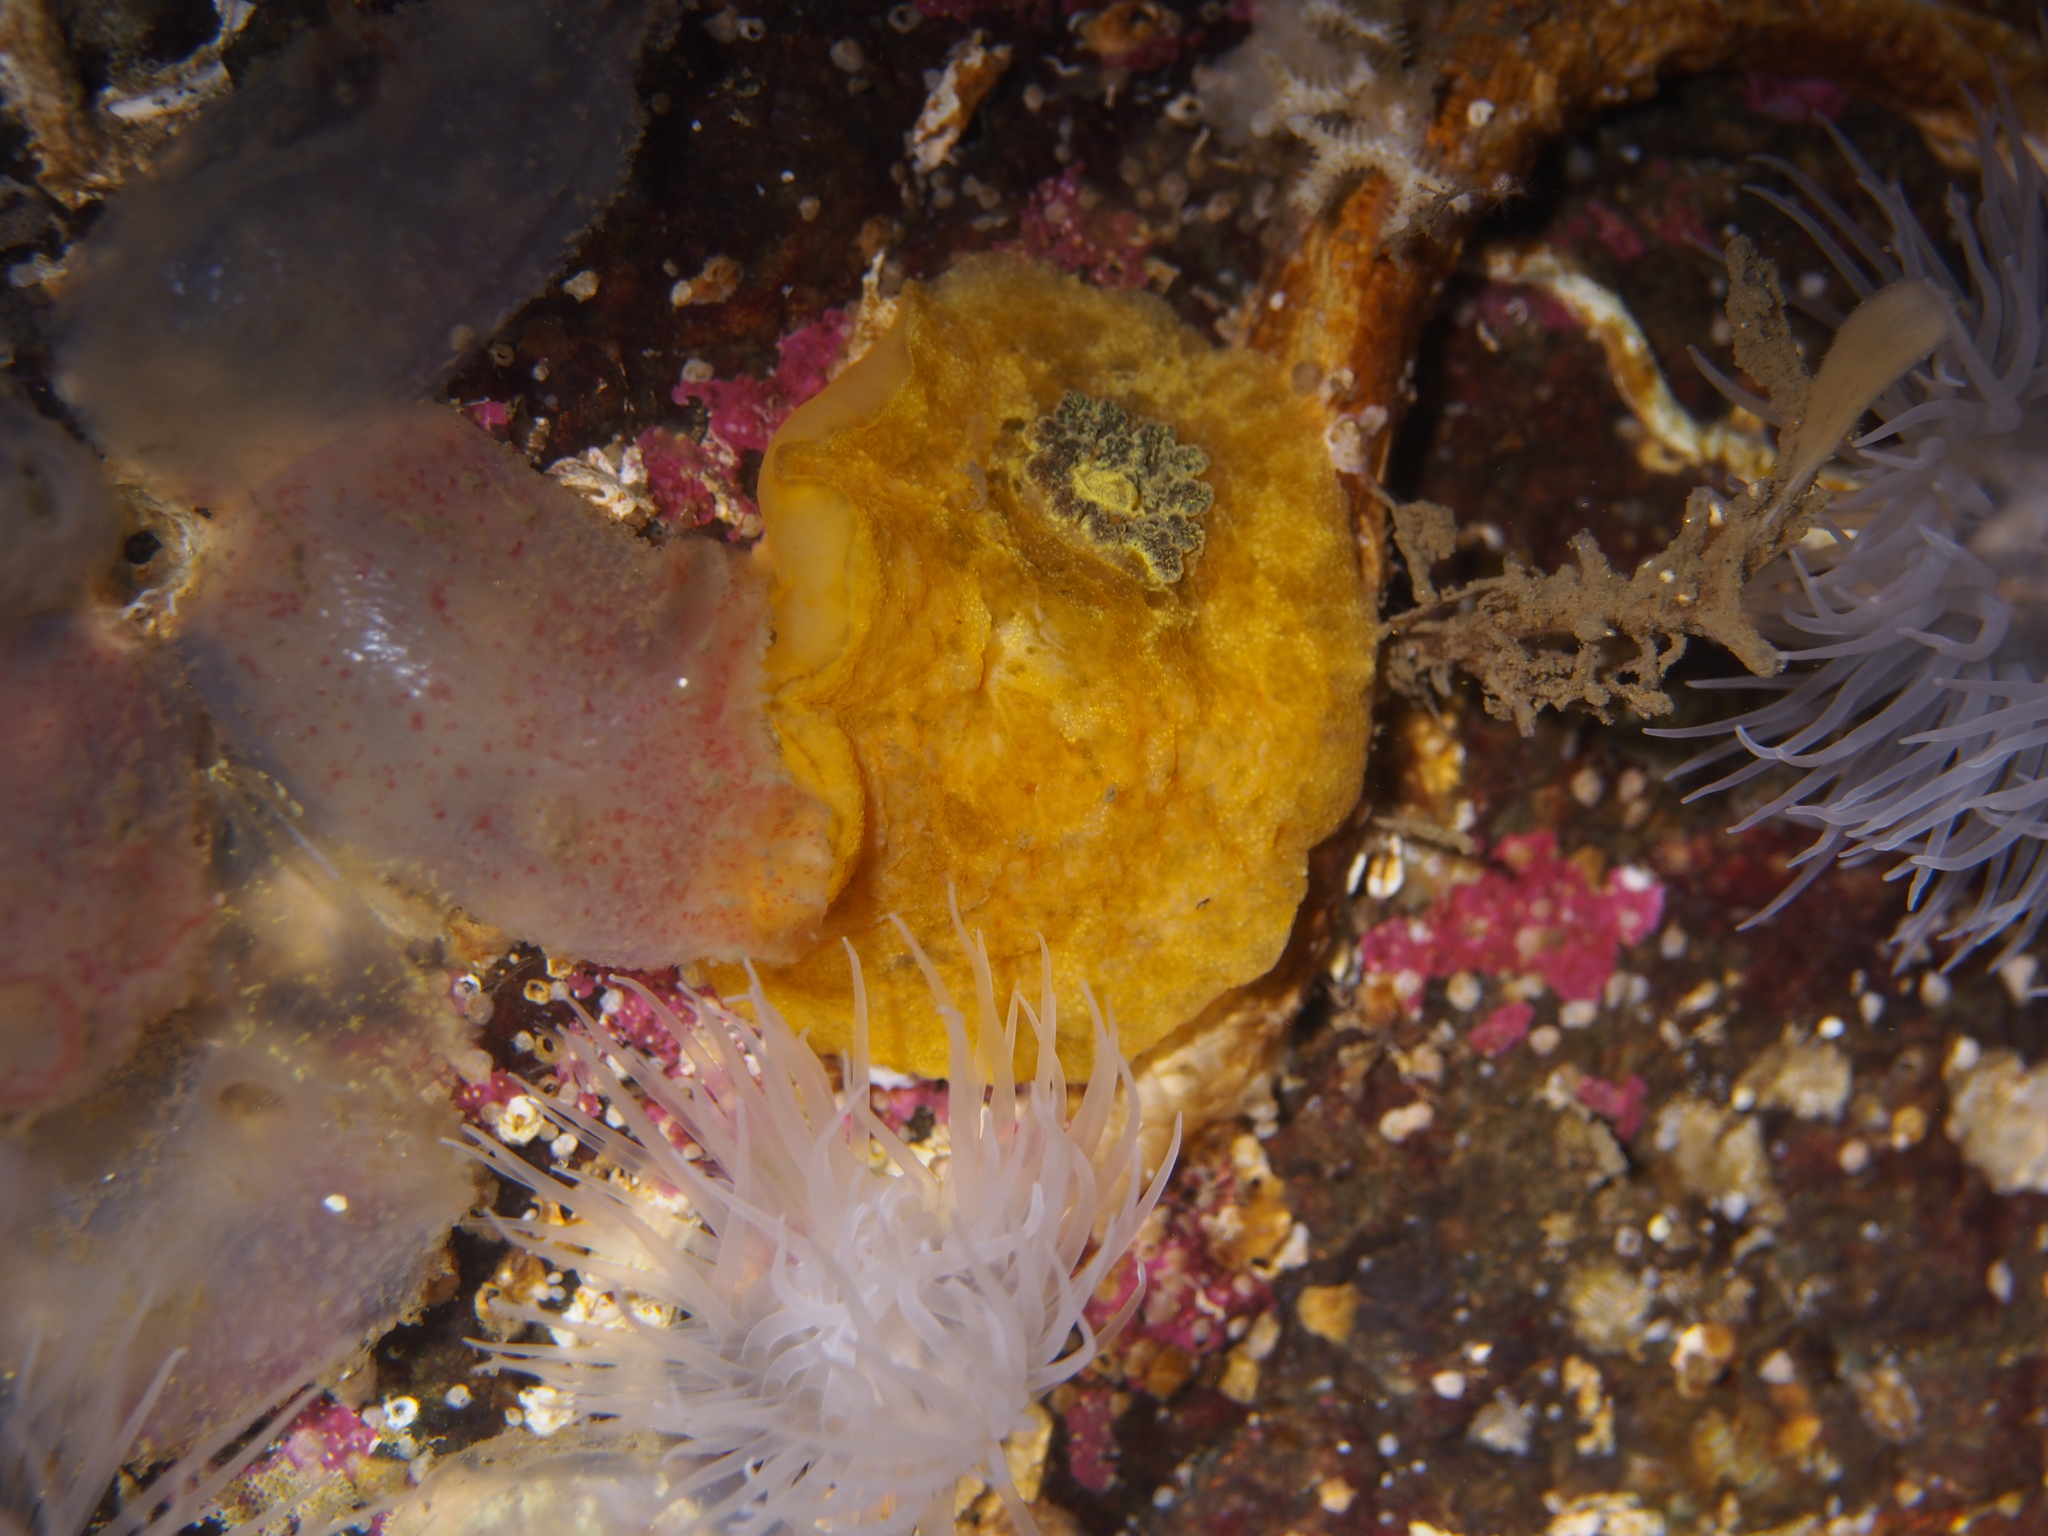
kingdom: Animalia
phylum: Mollusca
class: Gastropoda
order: Nudibranchia
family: Dorididae
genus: Doris
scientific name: Doris pseudoargus
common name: Sea lemon
